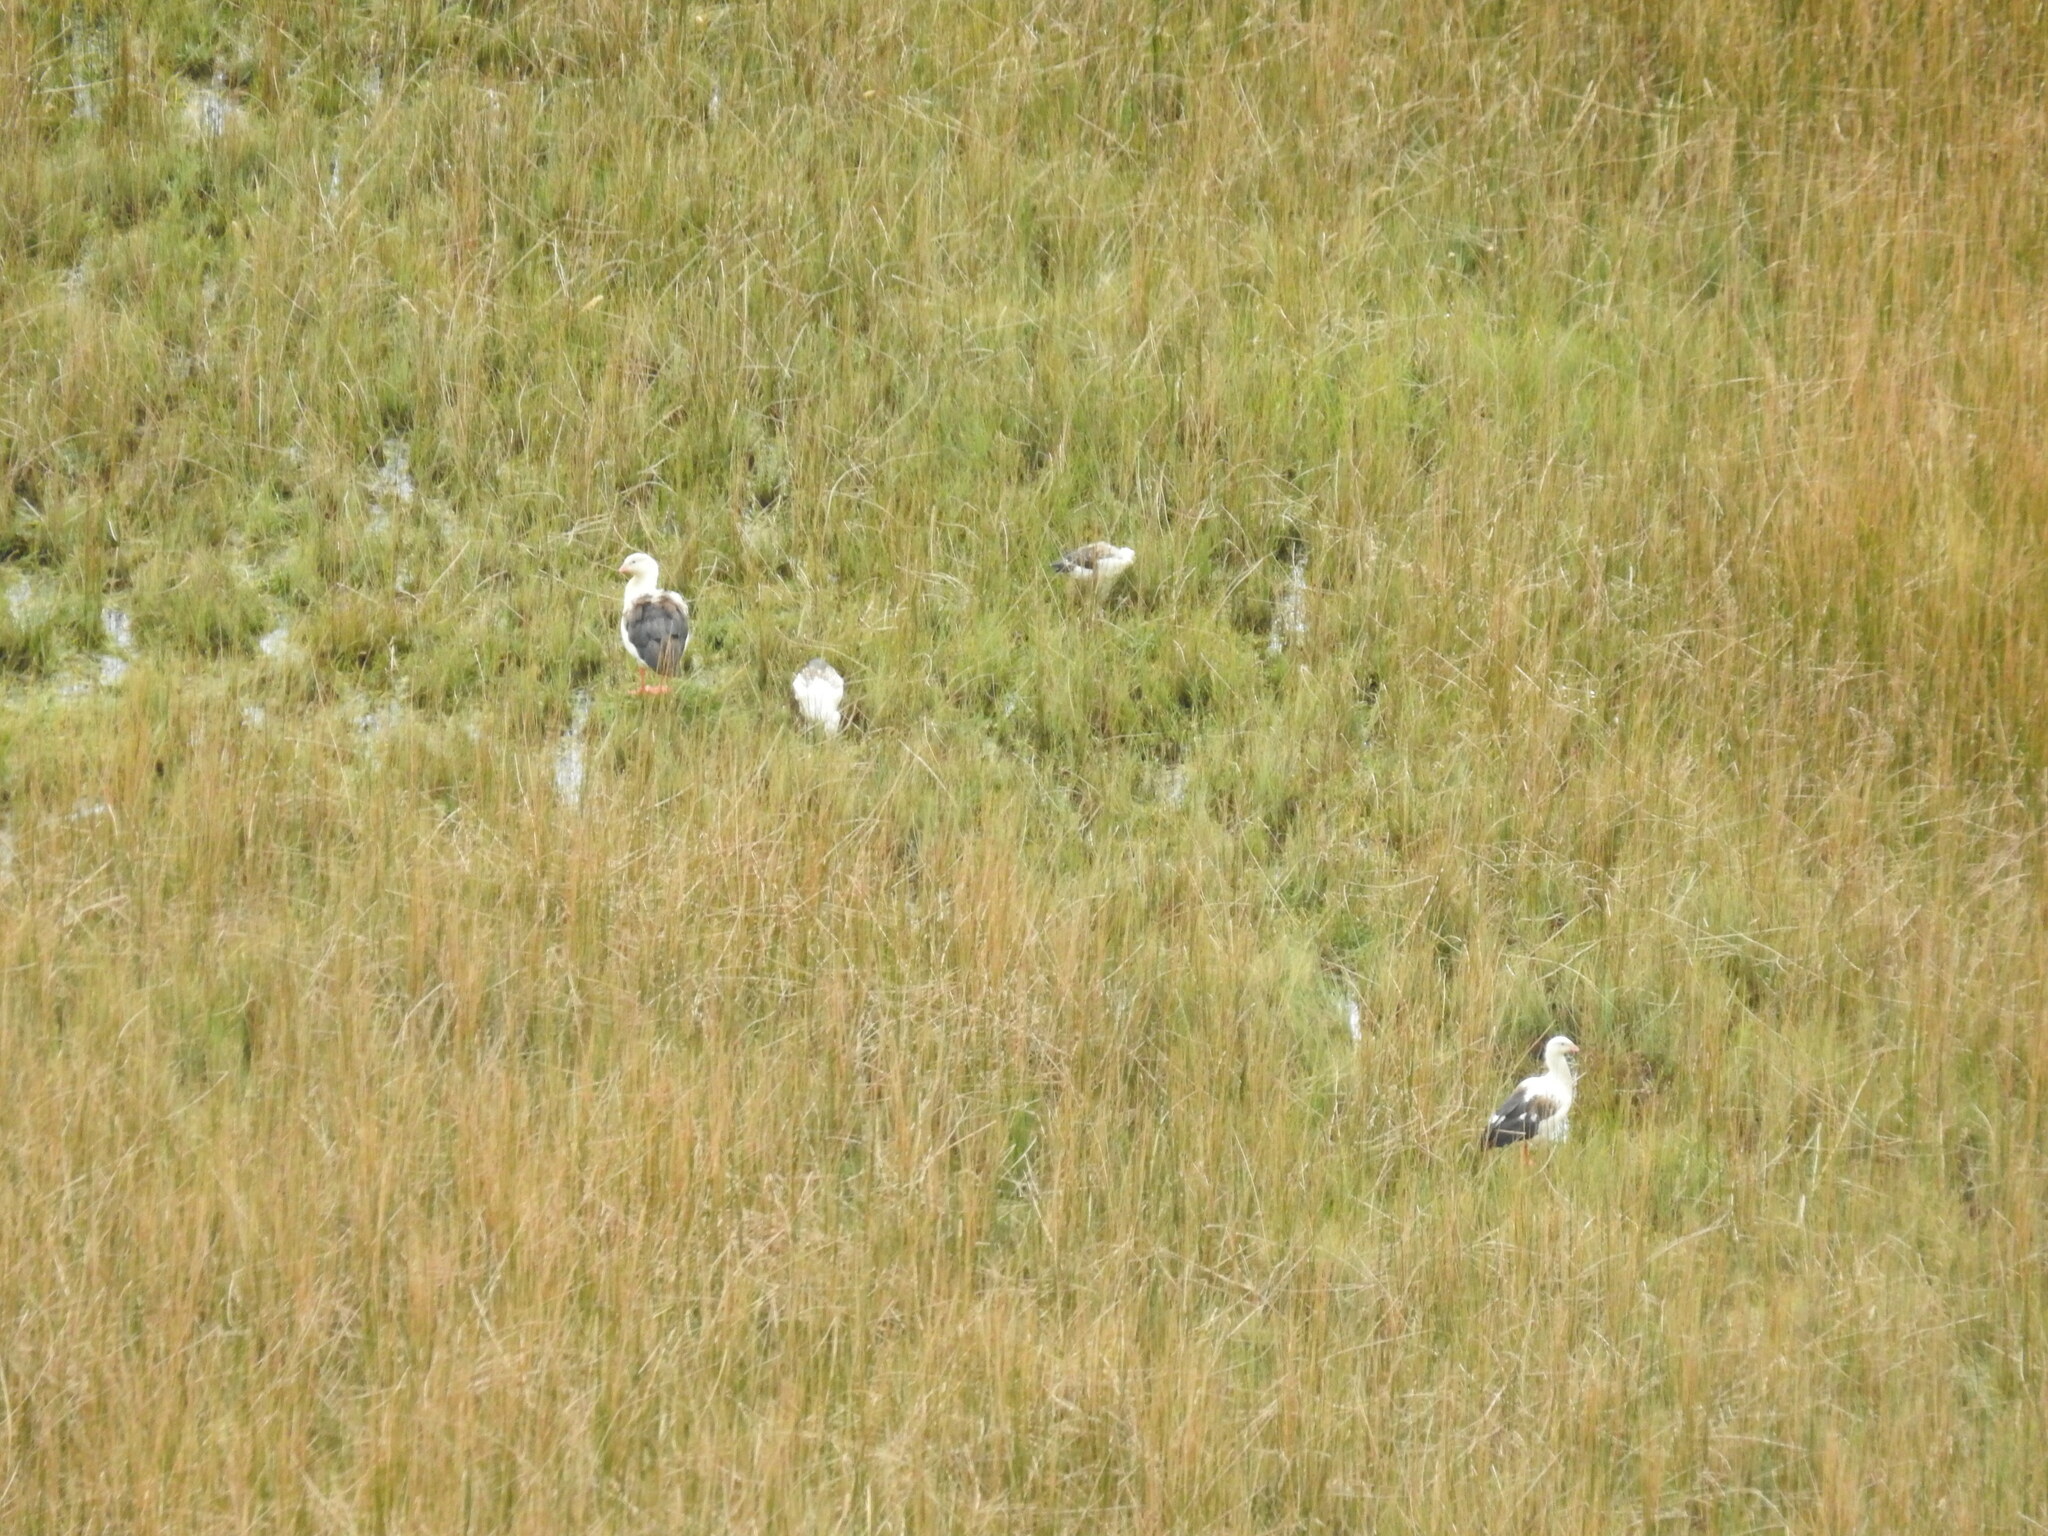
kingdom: Animalia
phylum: Chordata
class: Aves
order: Anseriformes
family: Anatidae
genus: Chloephaga
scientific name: Chloephaga melanoptera
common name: Andean goose
